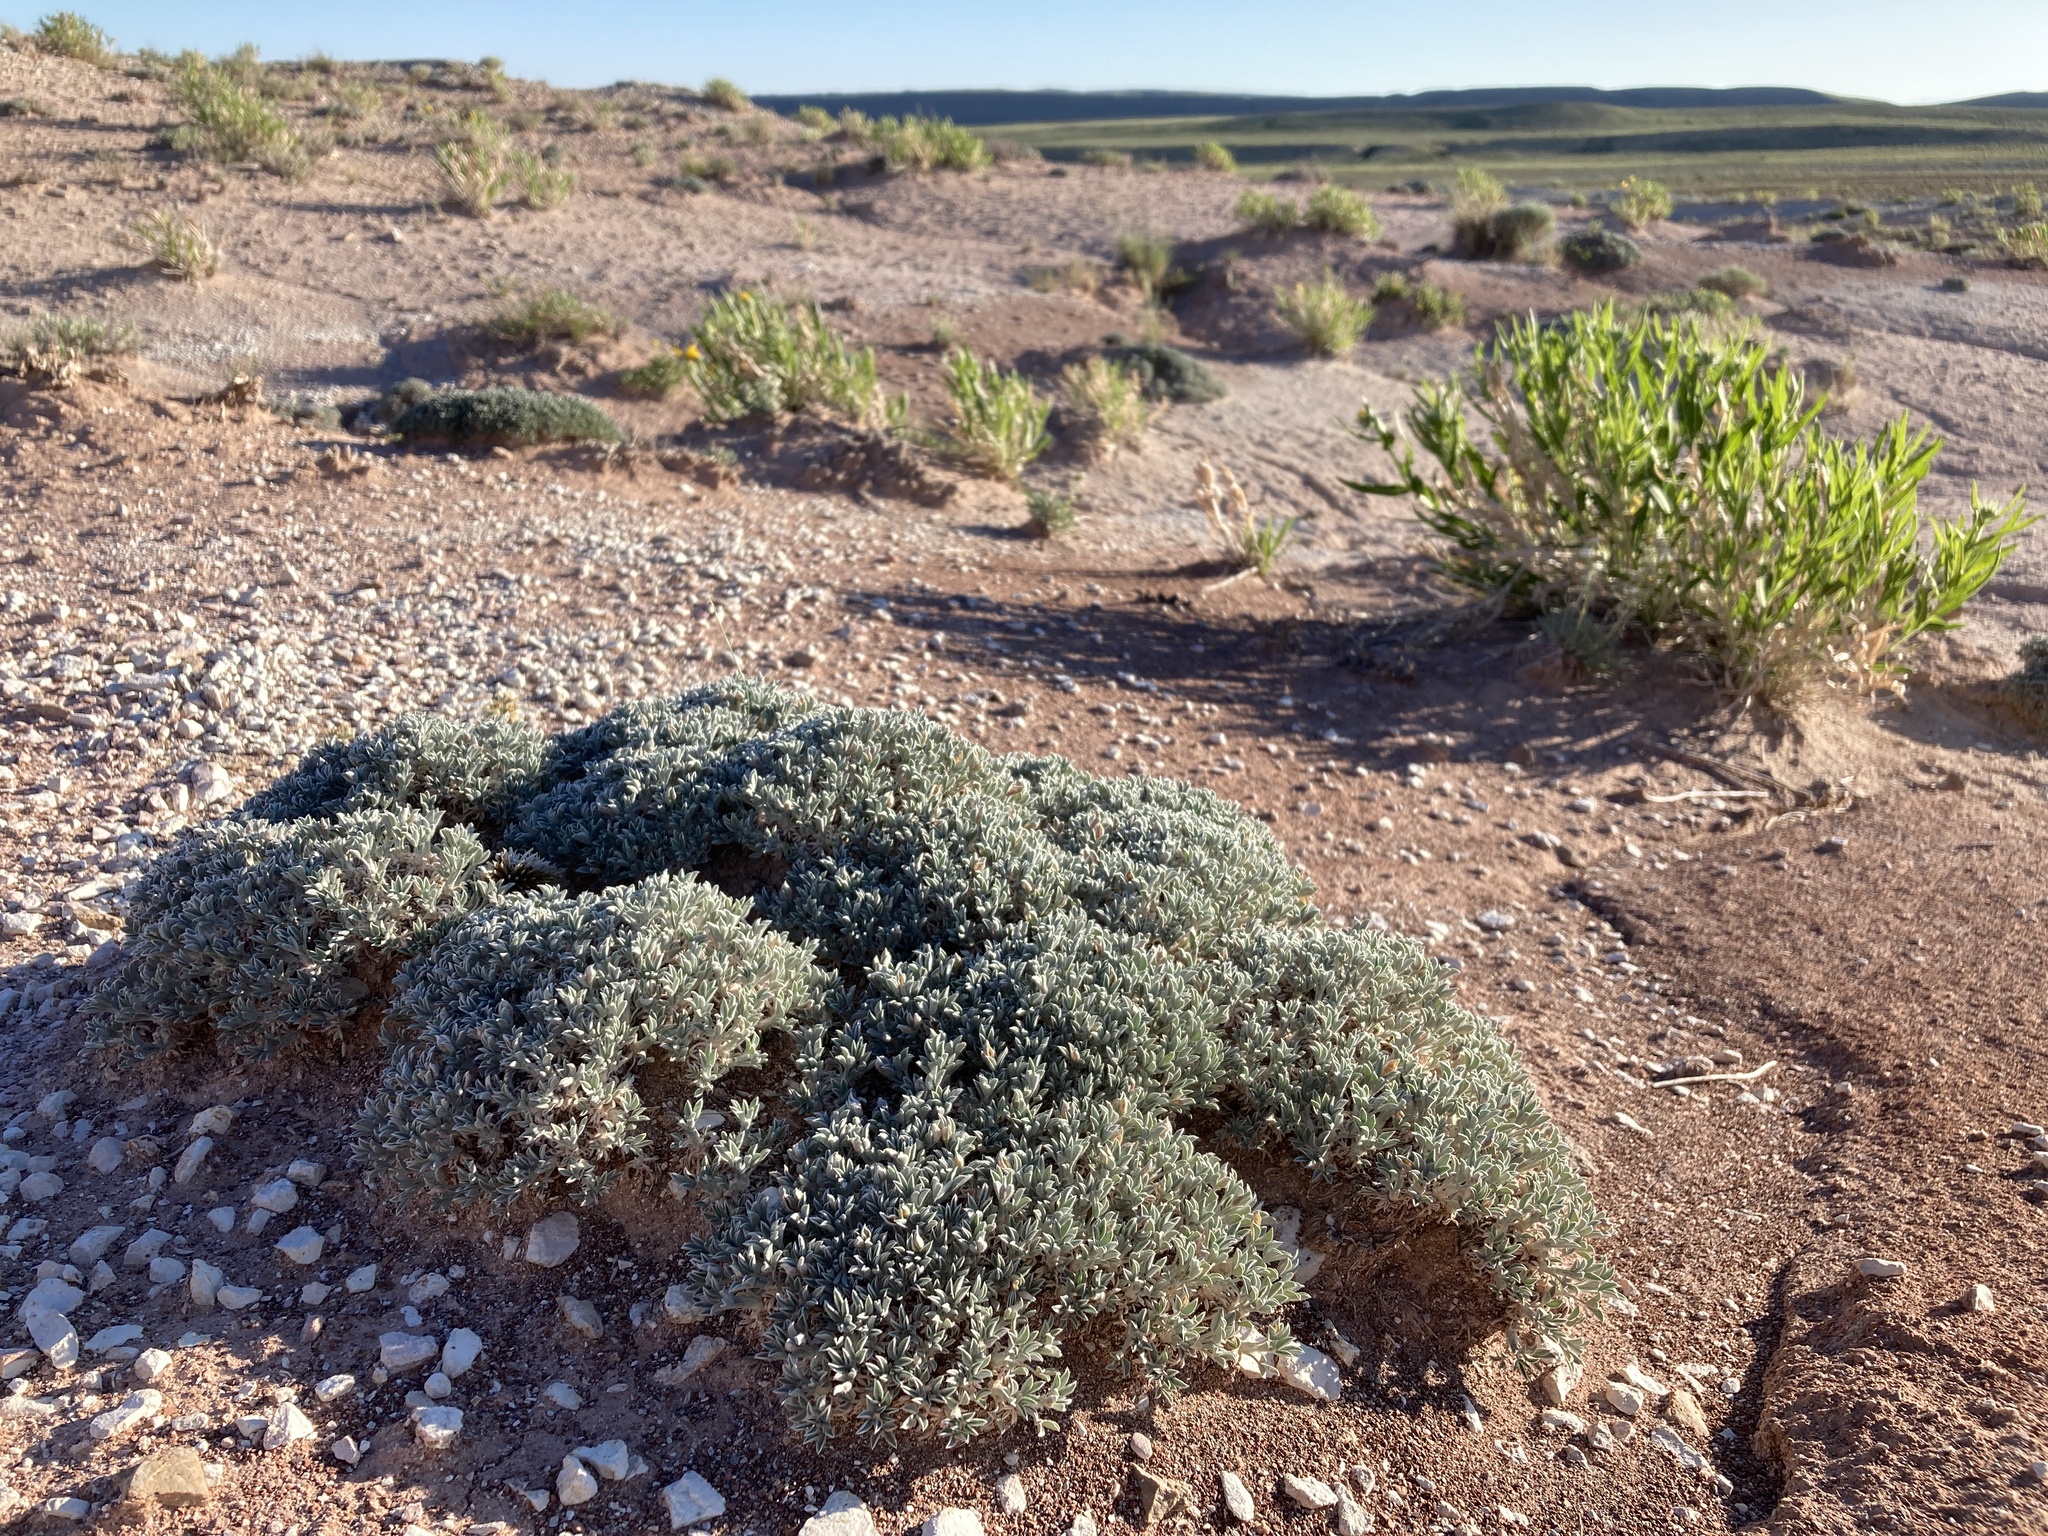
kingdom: Plantae
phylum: Tracheophyta
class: Magnoliopsida
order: Fabales
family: Fabaceae
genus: Astragalus
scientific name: Astragalus hyalinus
